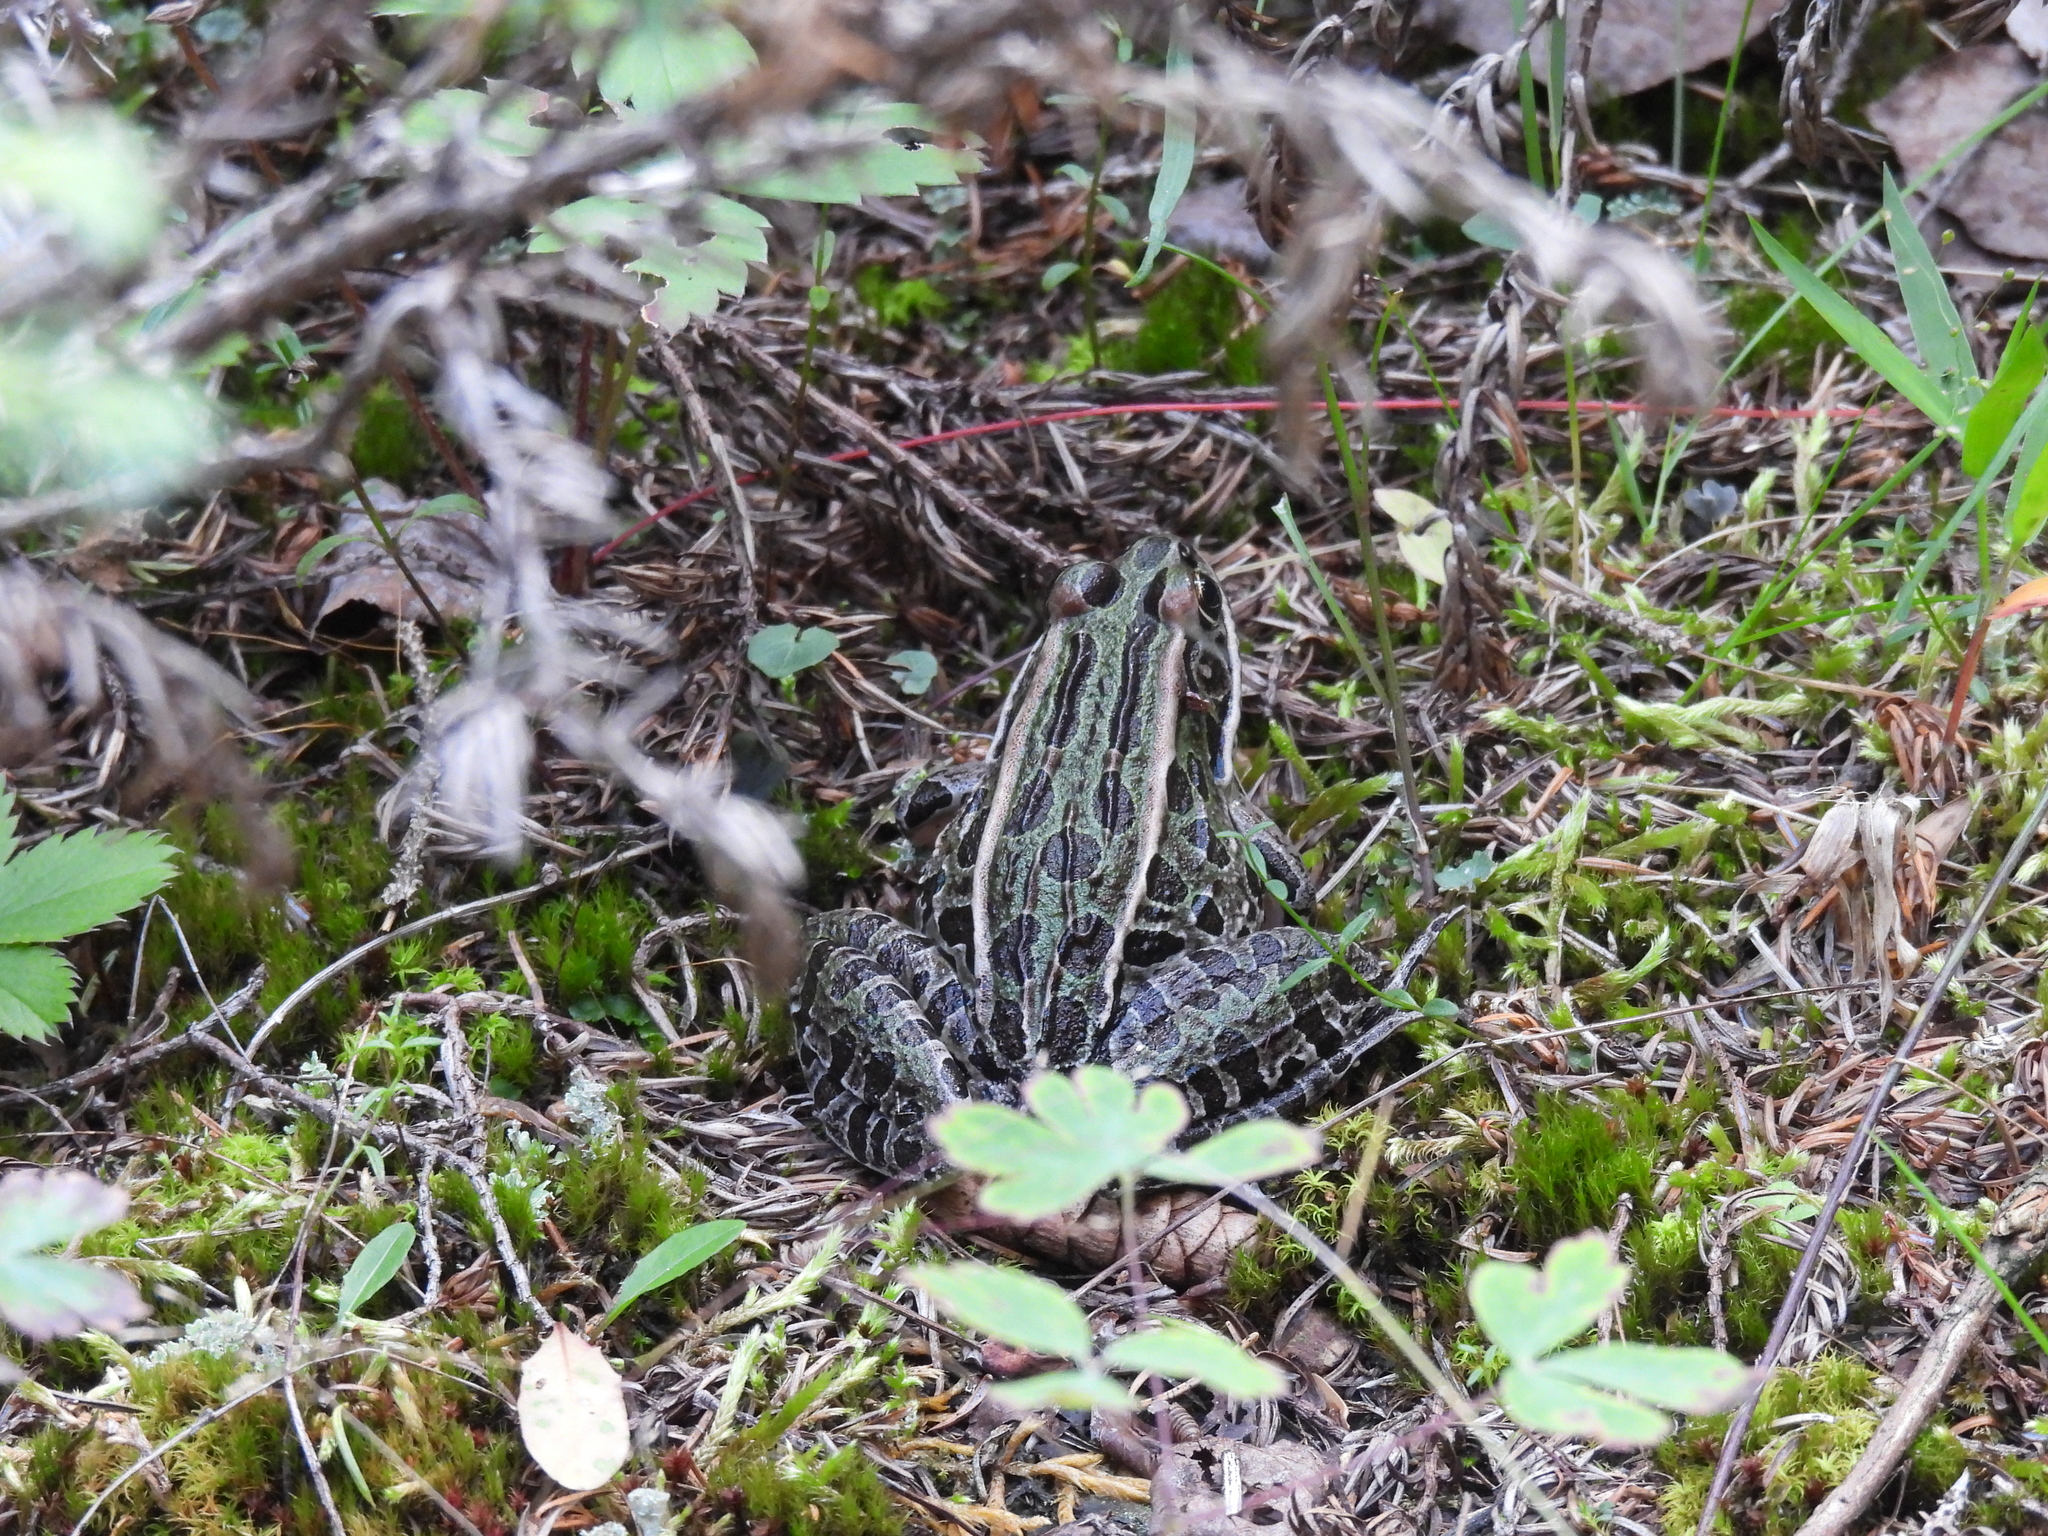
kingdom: Animalia
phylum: Chordata
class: Amphibia
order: Anura
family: Ranidae
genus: Lithobates
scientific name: Lithobates pipiens
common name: Northern leopard frog
